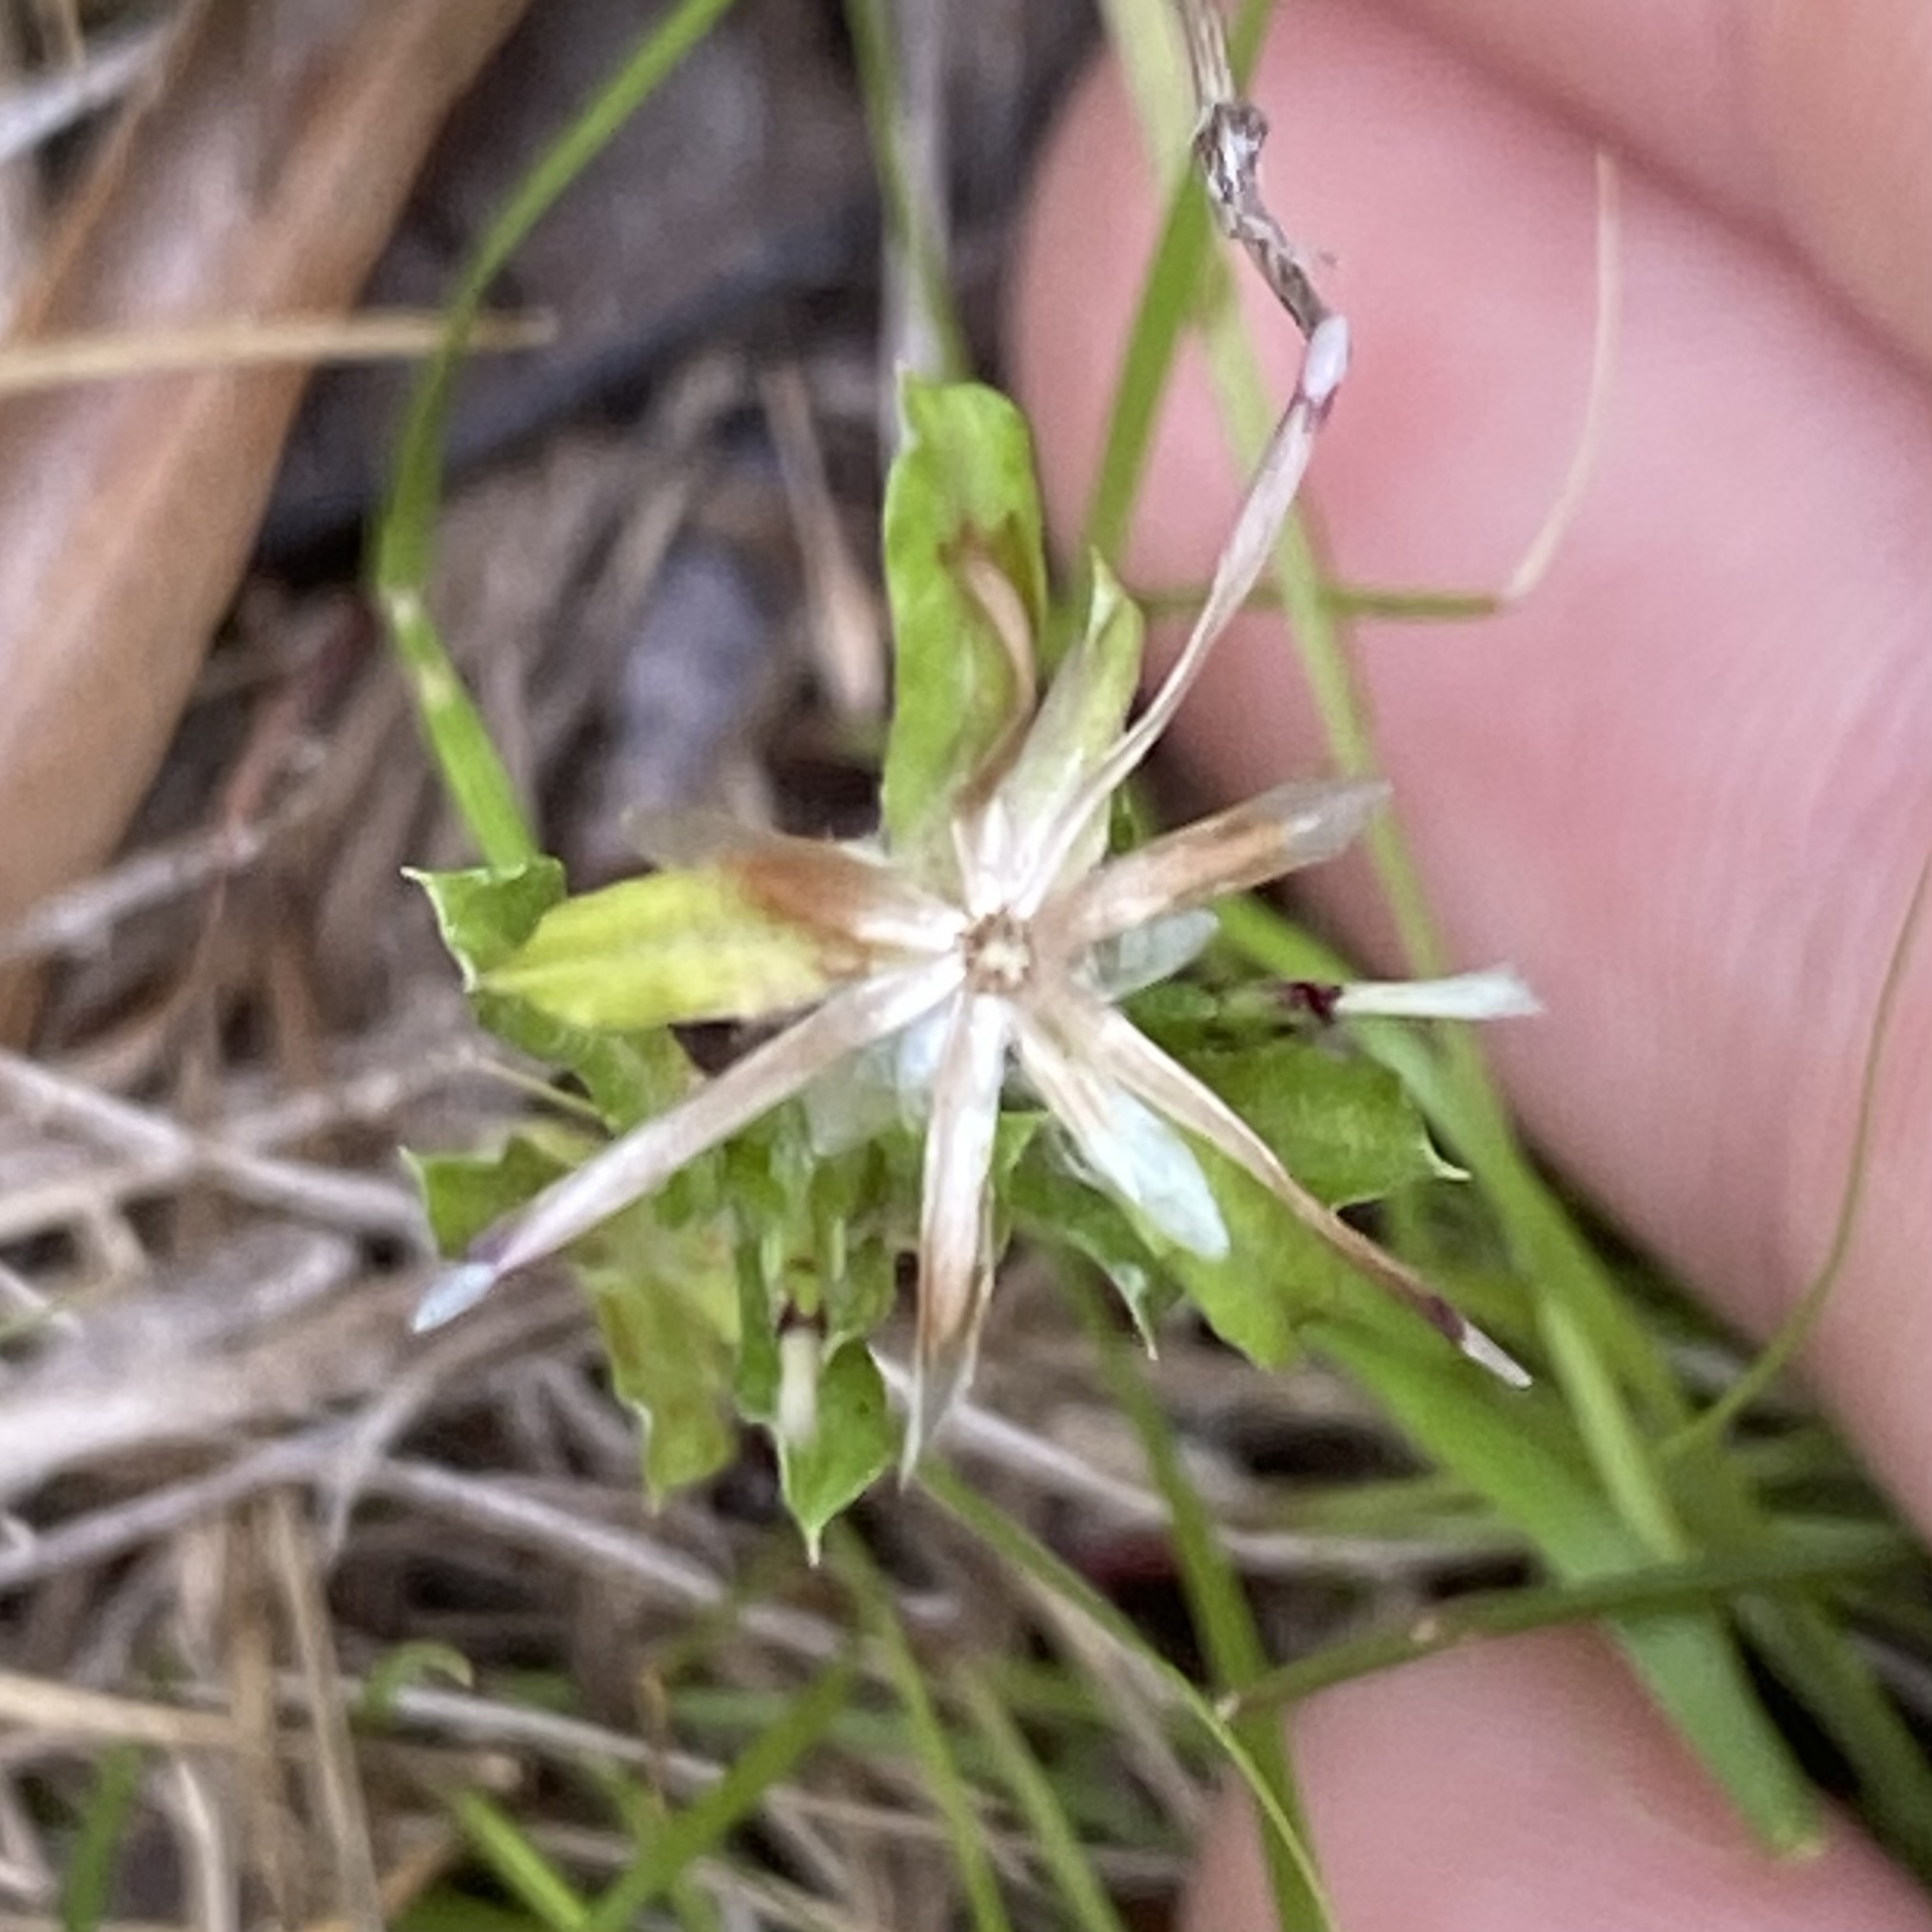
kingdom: Plantae
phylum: Tracheophyta
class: Magnoliopsida
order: Asterales
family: Asteraceae
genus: Facelis
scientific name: Facelis retusa
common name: Annual trampweed
